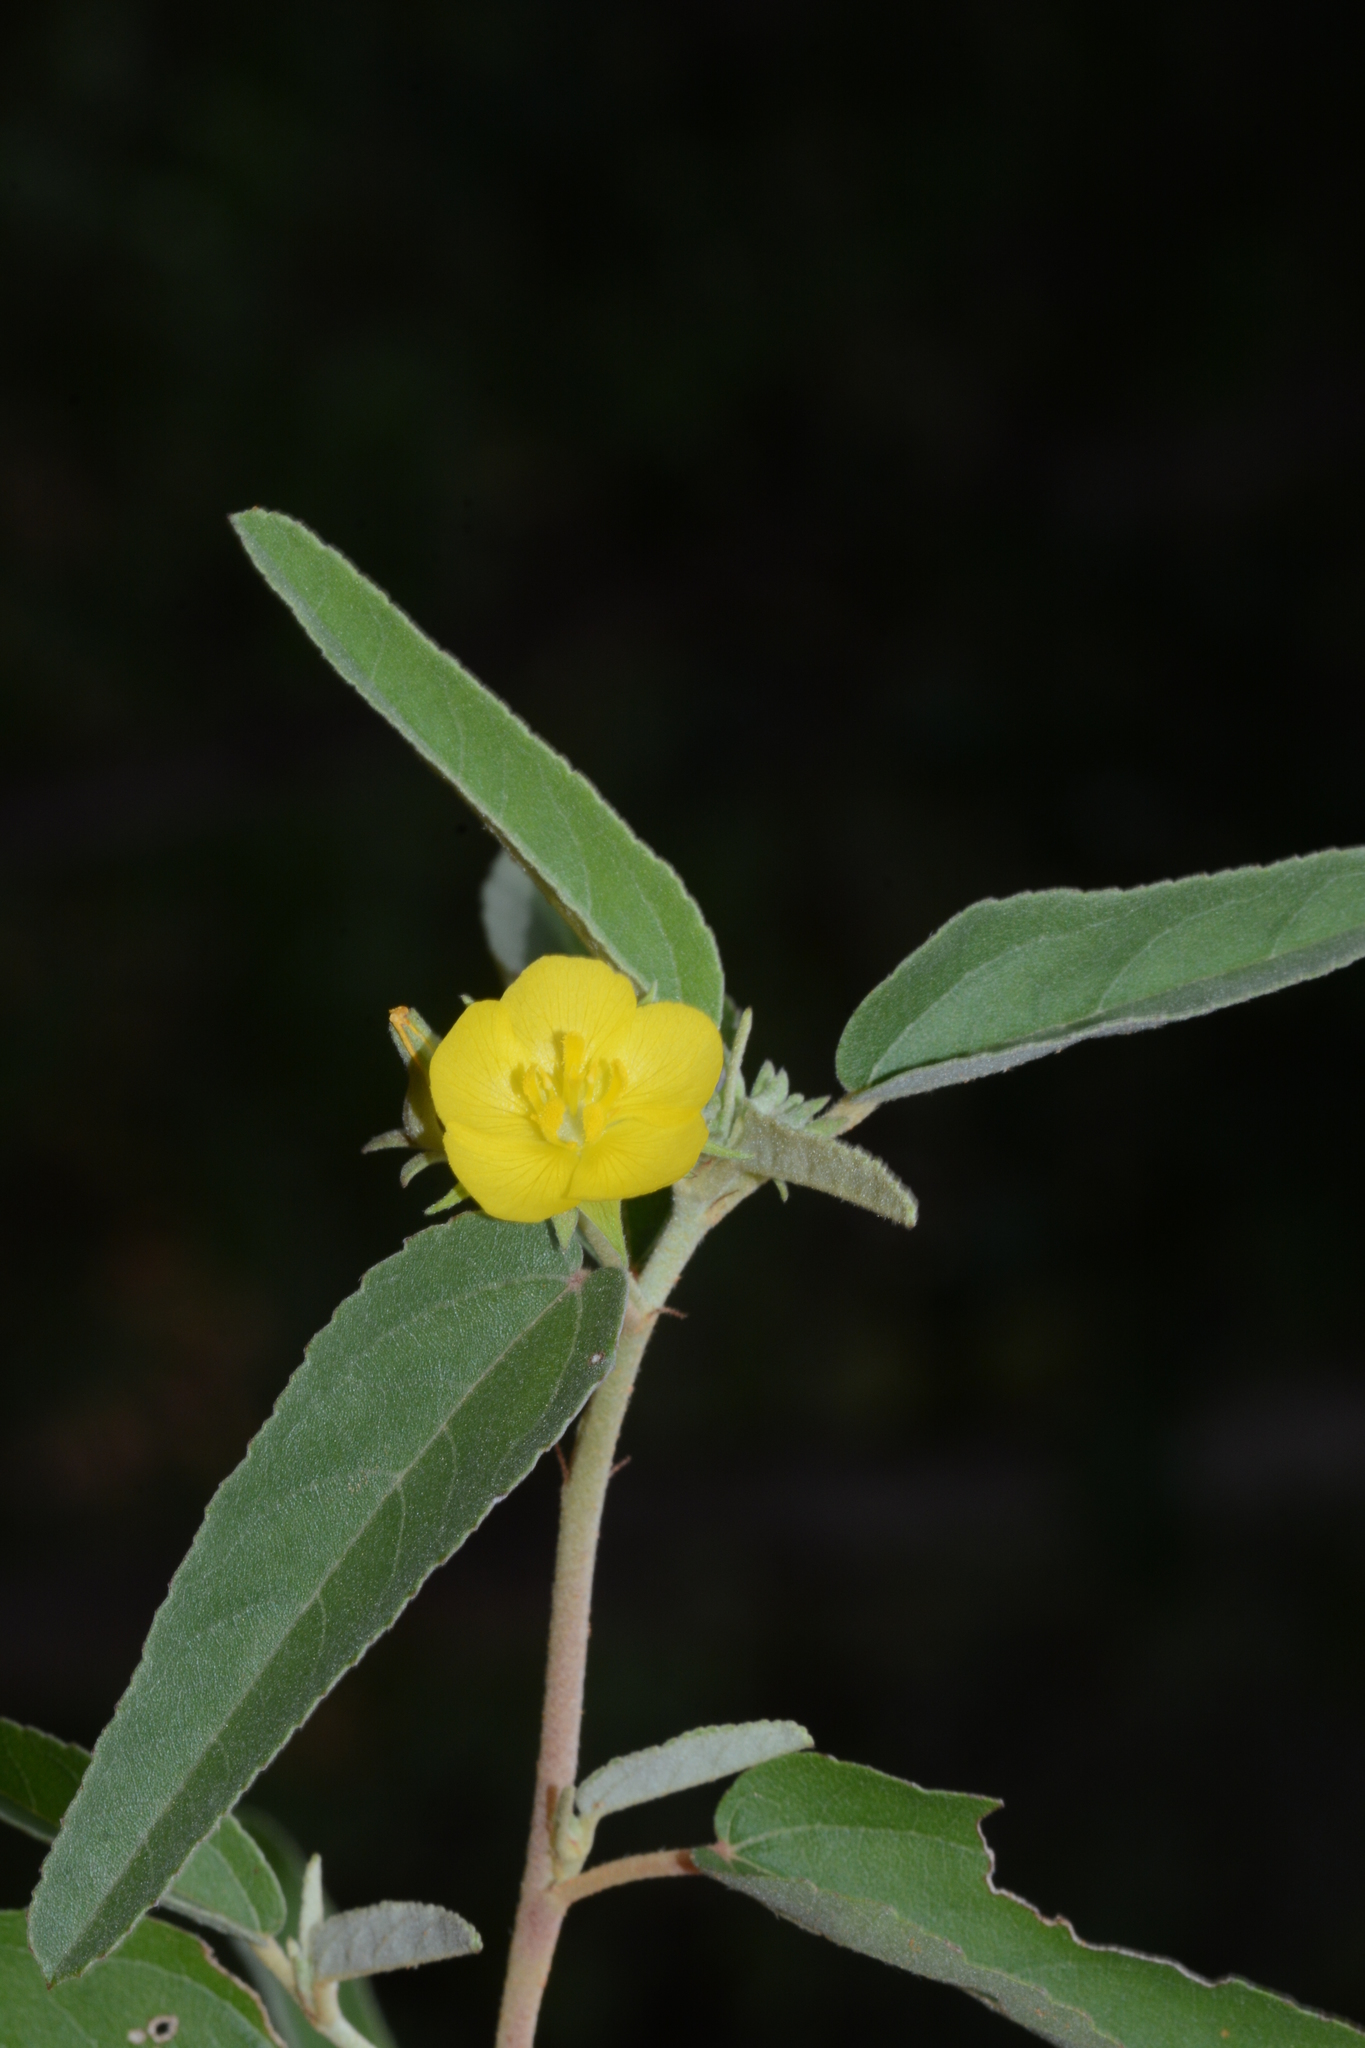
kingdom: Plantae
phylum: Tracheophyta
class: Magnoliopsida
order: Malvales
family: Malvaceae
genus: Melhania
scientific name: Melhania incana
